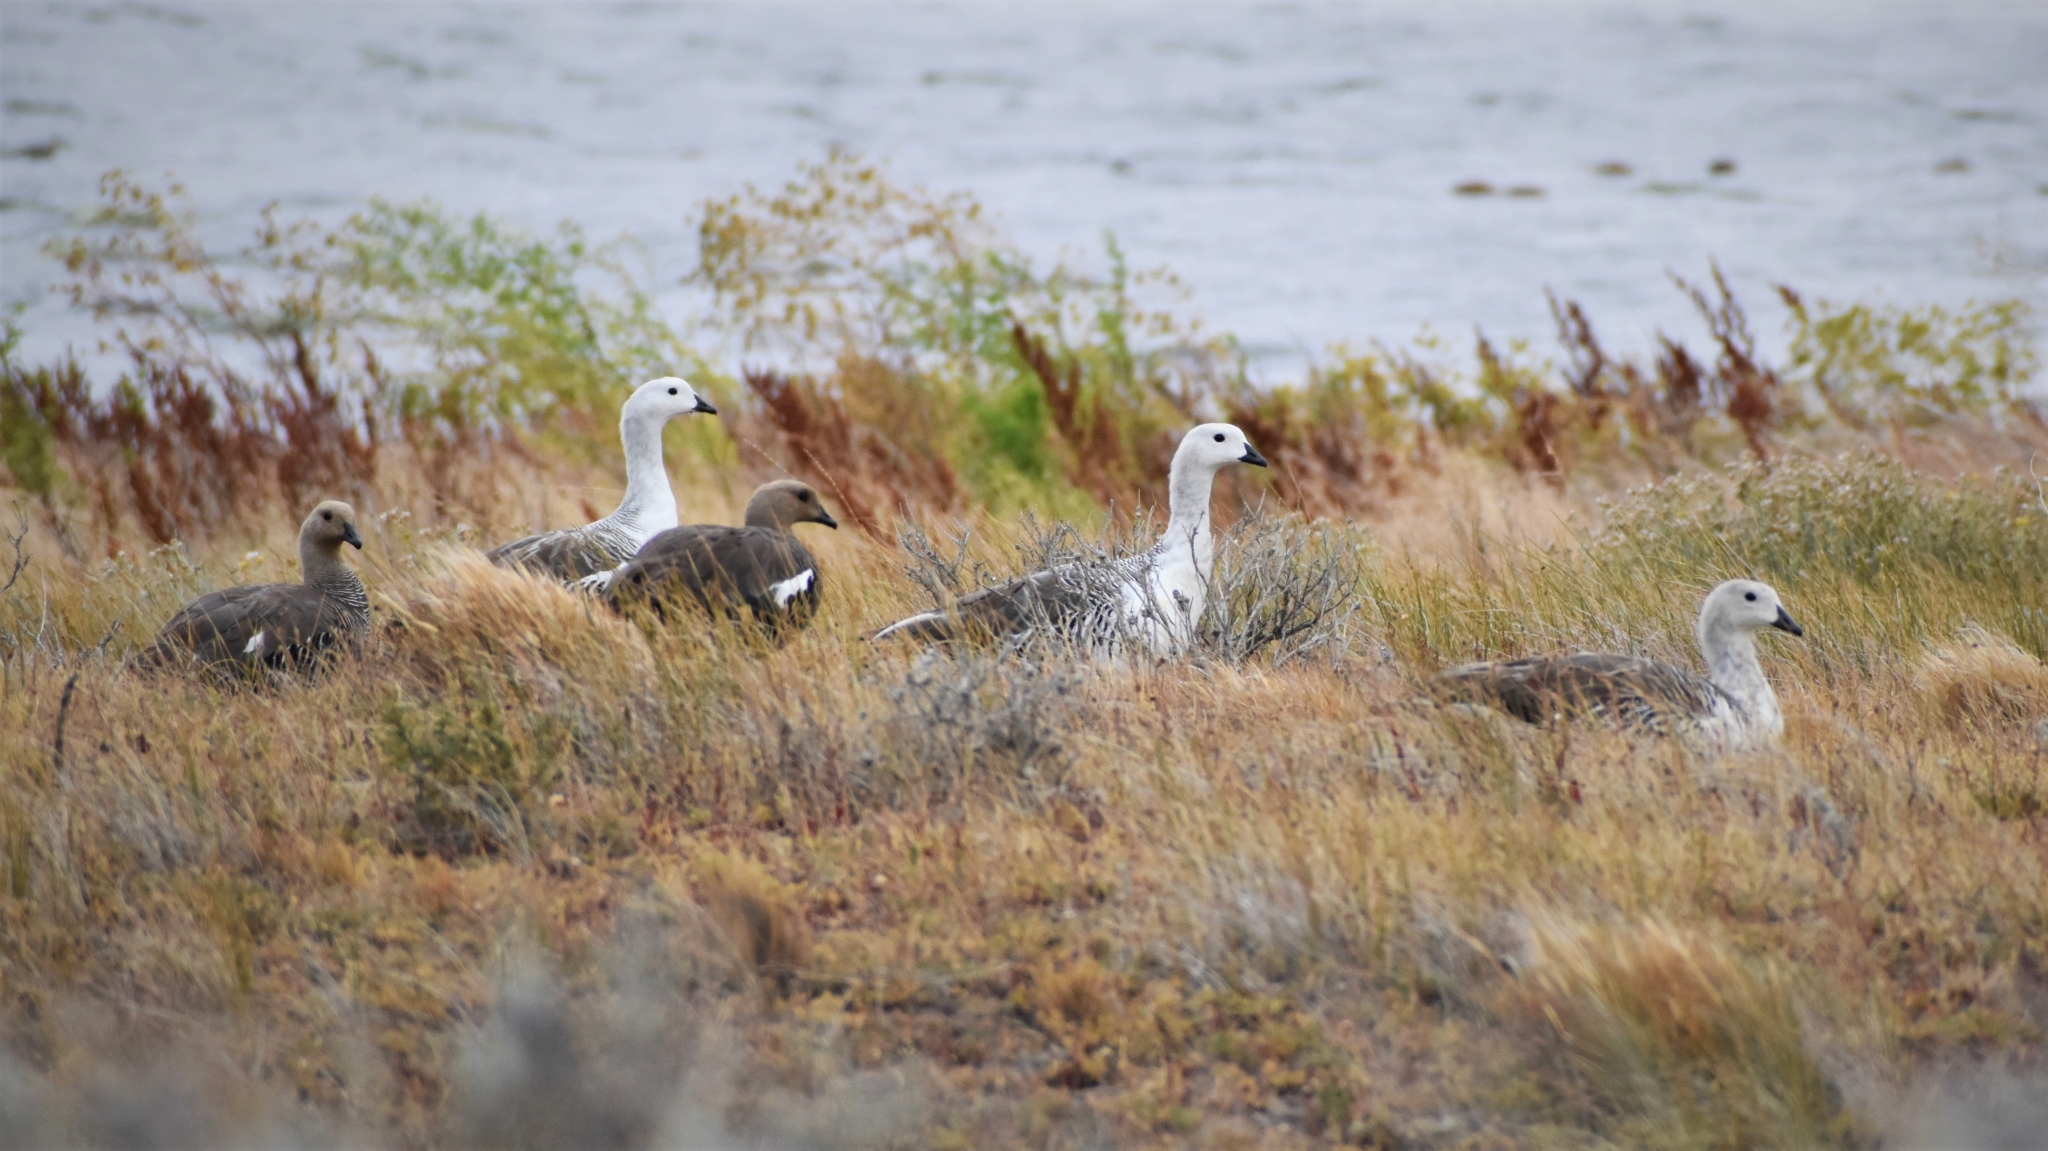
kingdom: Animalia
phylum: Chordata
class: Aves
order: Anseriformes
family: Anatidae
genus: Chloephaga
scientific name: Chloephaga picta
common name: Upland goose
